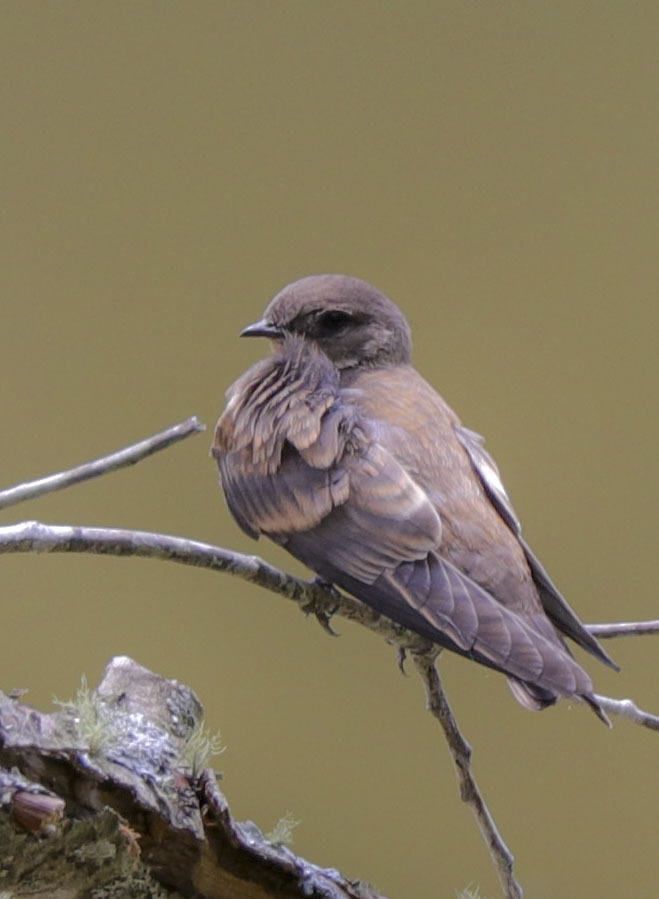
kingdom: Animalia
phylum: Chordata
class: Aves
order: Passeriformes
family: Hirundinidae
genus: Stelgidopteryx
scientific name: Stelgidopteryx serripennis
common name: Northern rough-winged swallow
